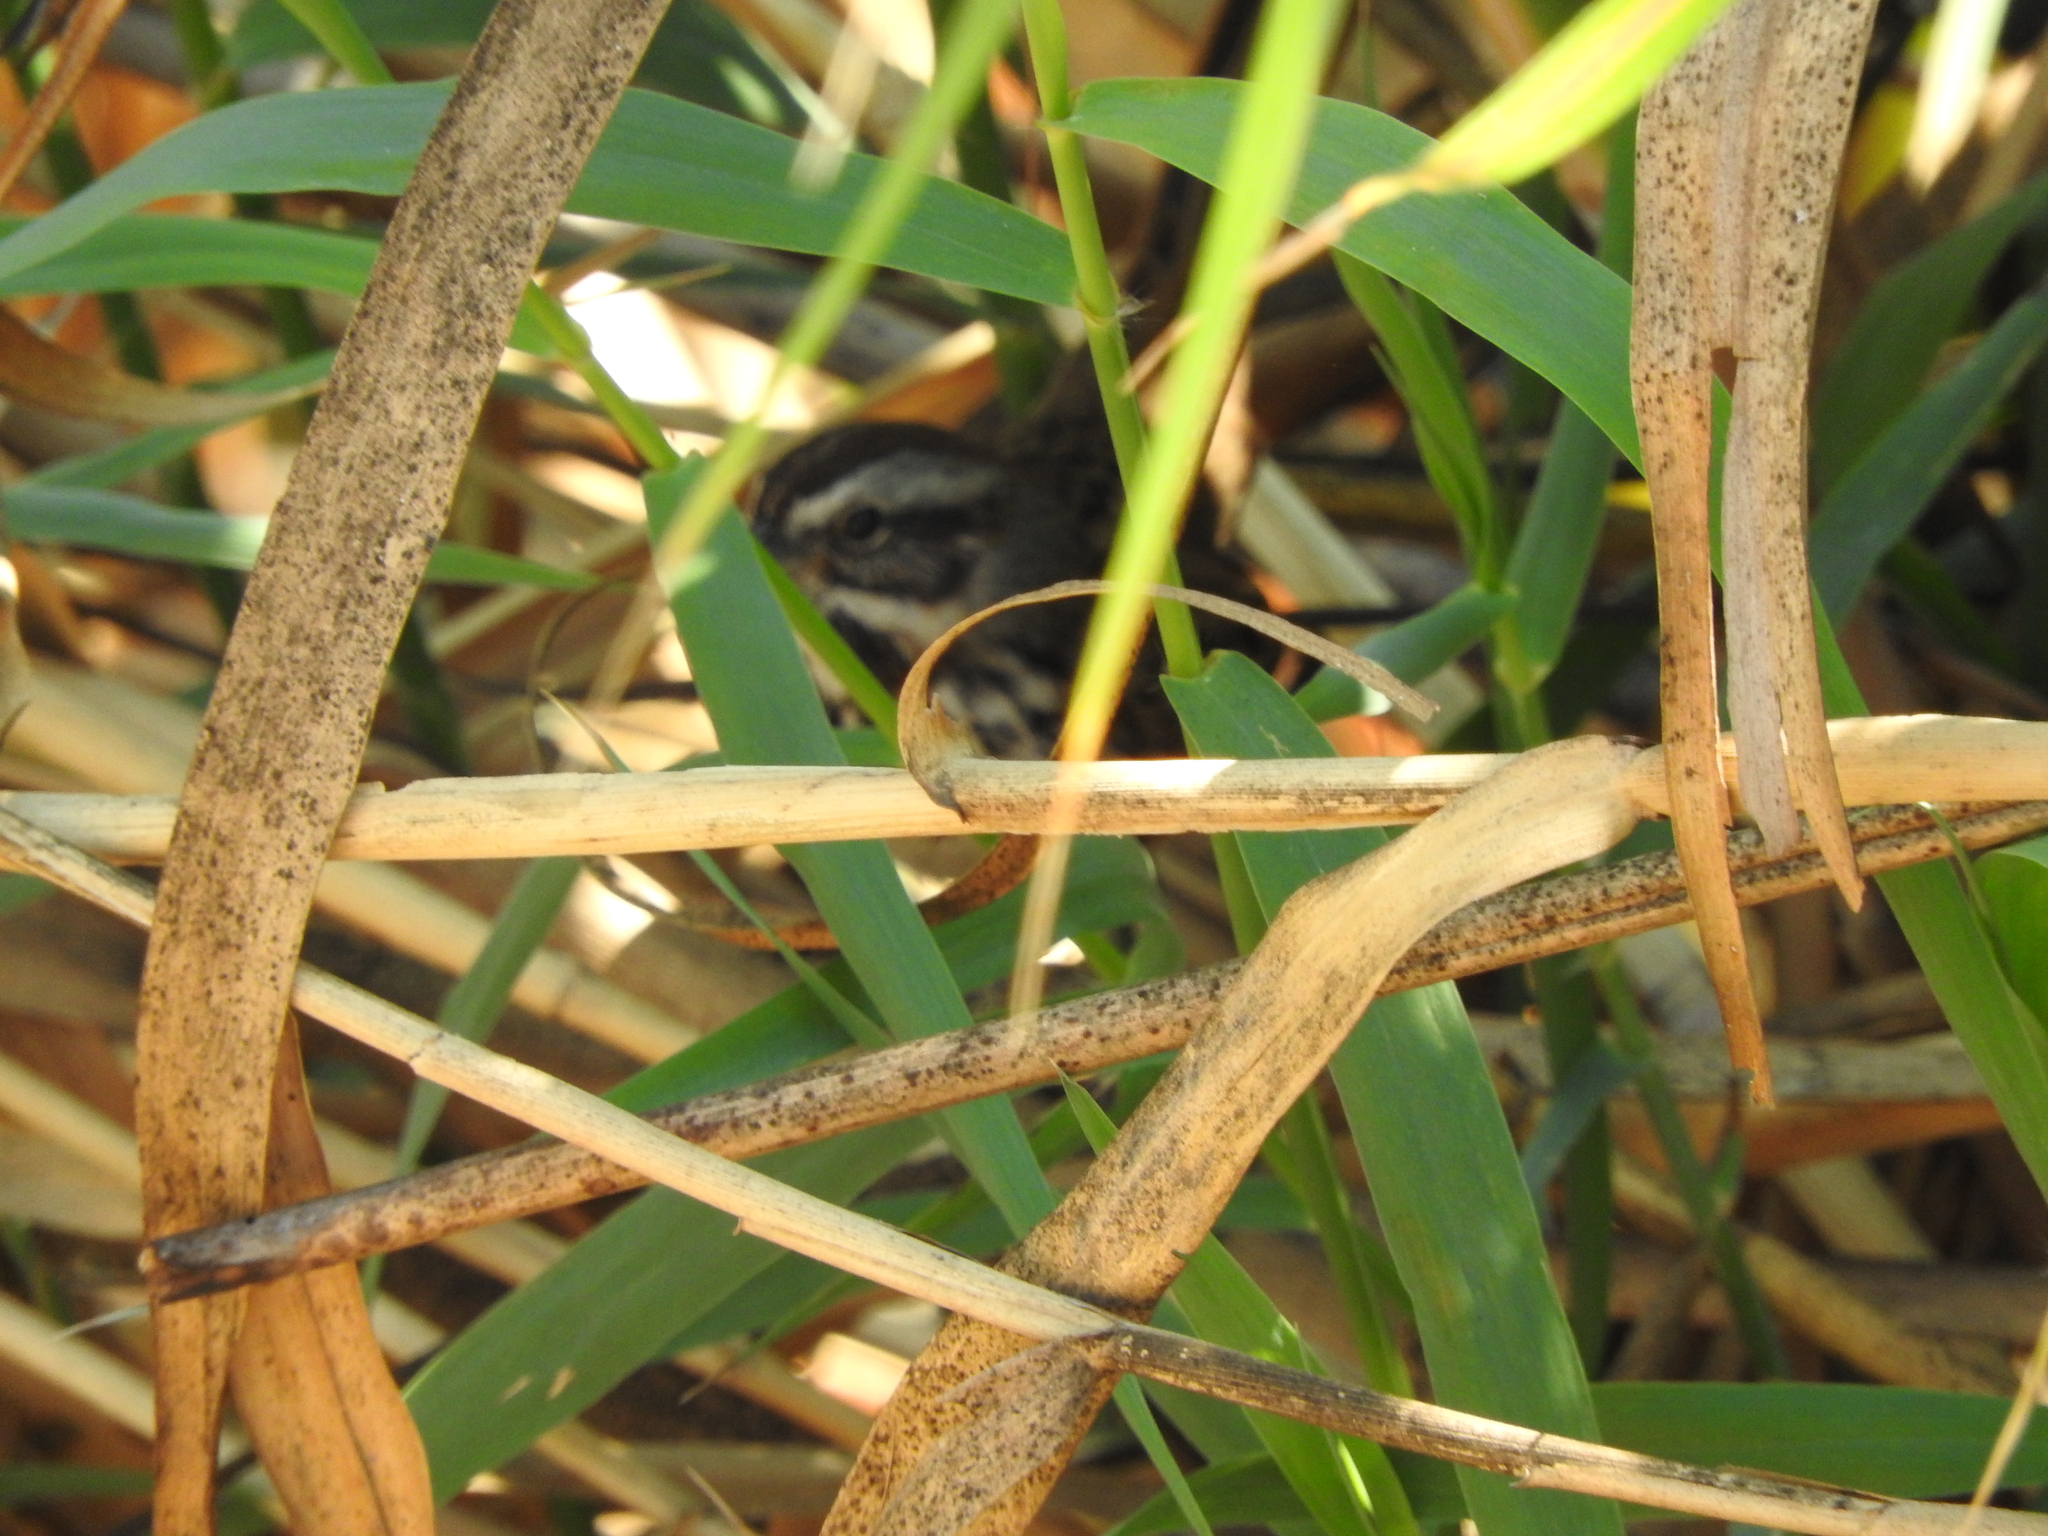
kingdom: Animalia
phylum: Chordata
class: Aves
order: Passeriformes
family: Passerellidae
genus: Melospiza
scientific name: Melospiza melodia
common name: Song sparrow
